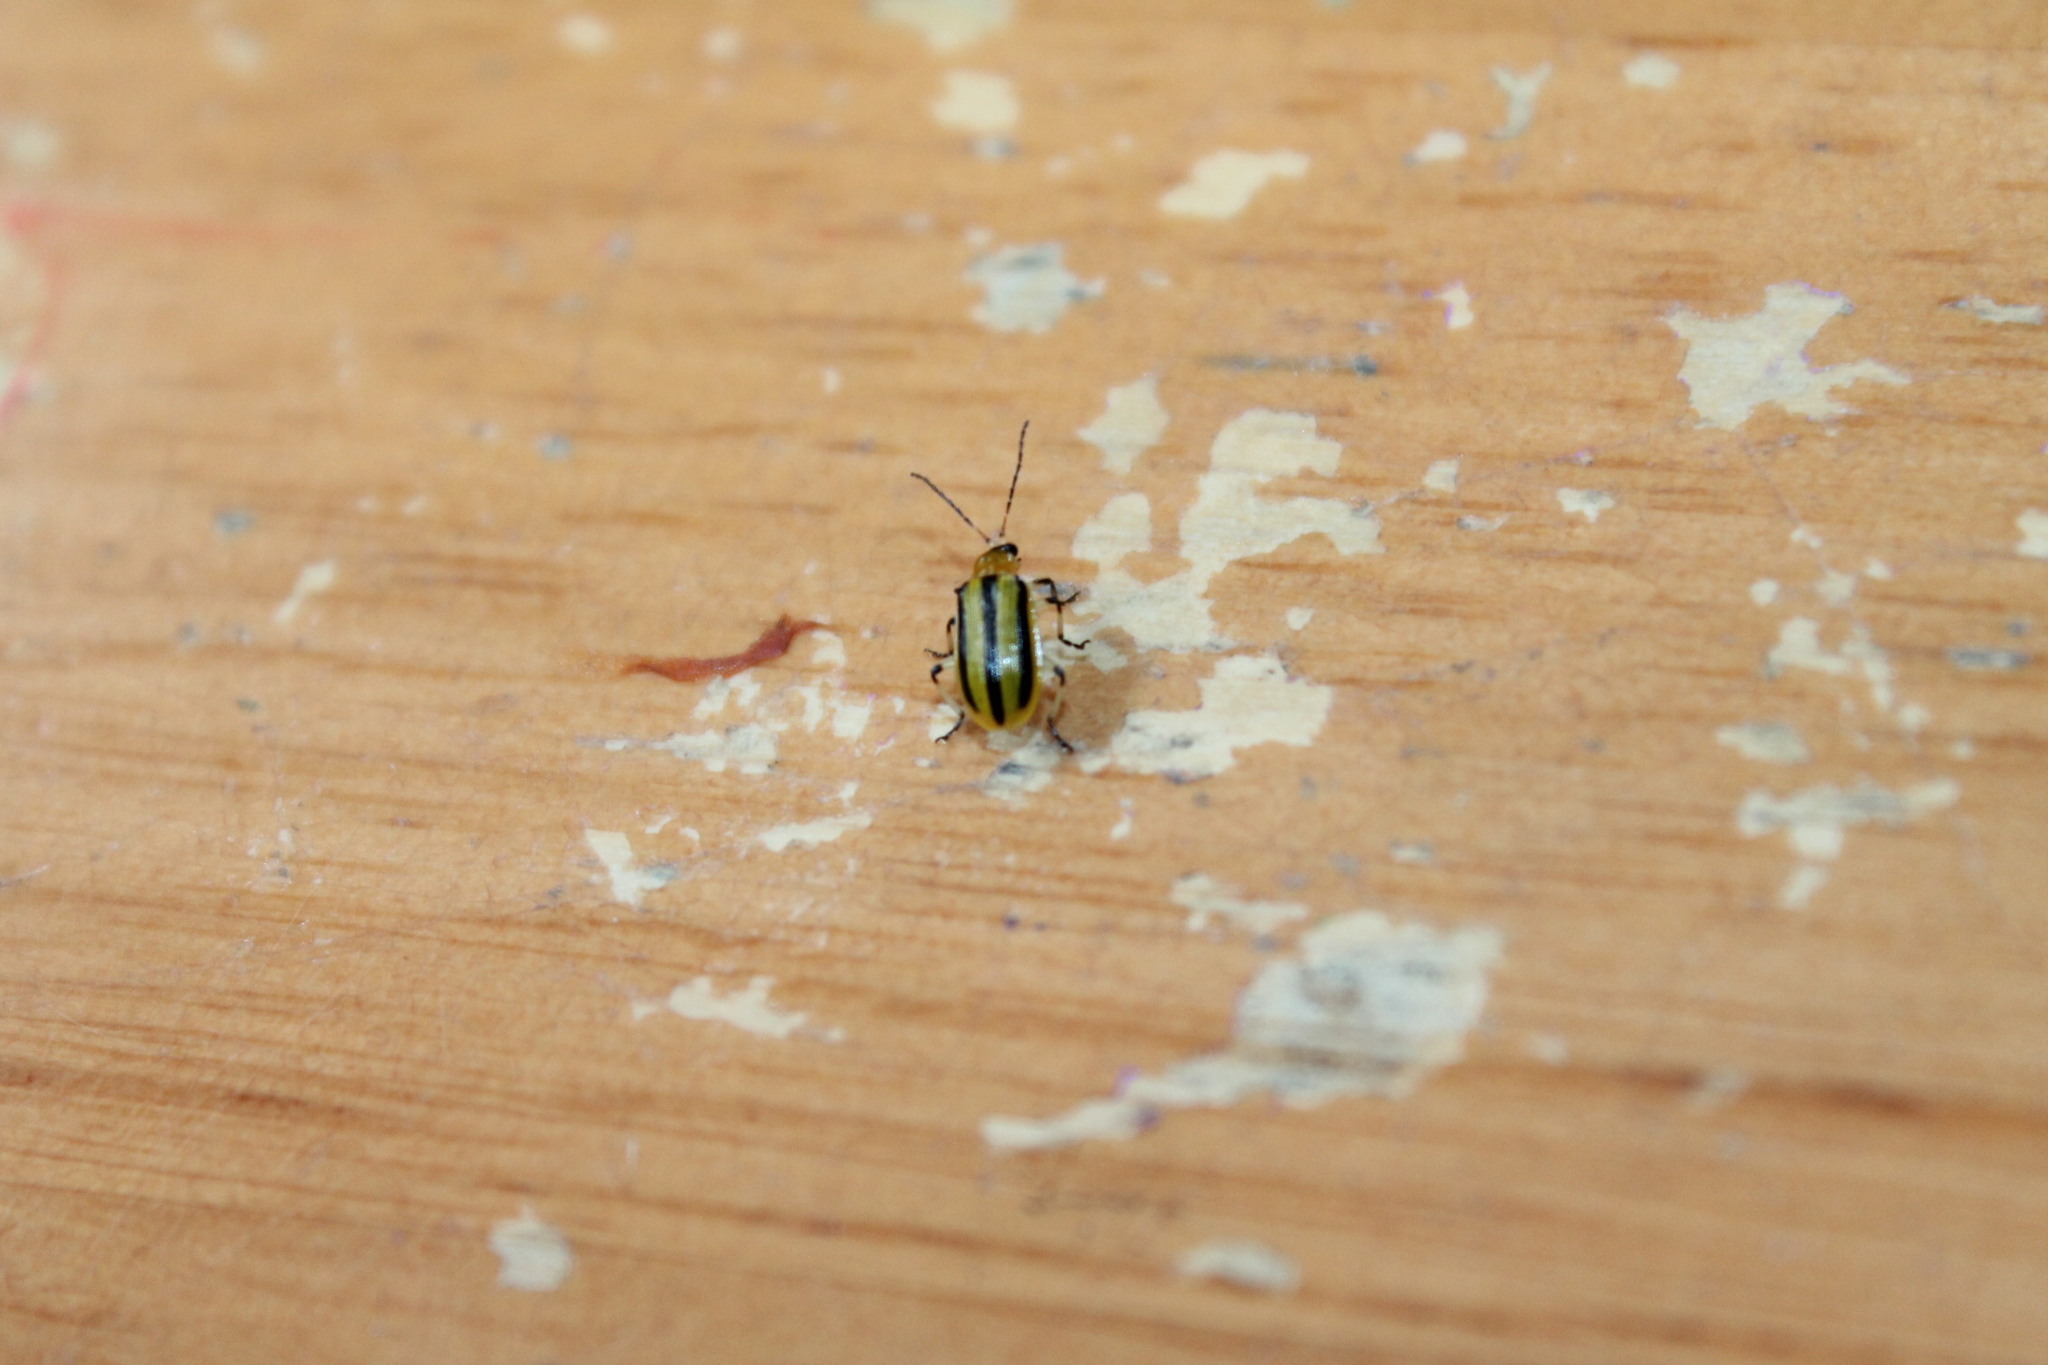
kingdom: Animalia
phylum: Arthropoda
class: Insecta
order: Coleoptera
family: Chrysomelidae
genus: Acalymma
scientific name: Acalymma vittatum
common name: Striped cucumber beetle
